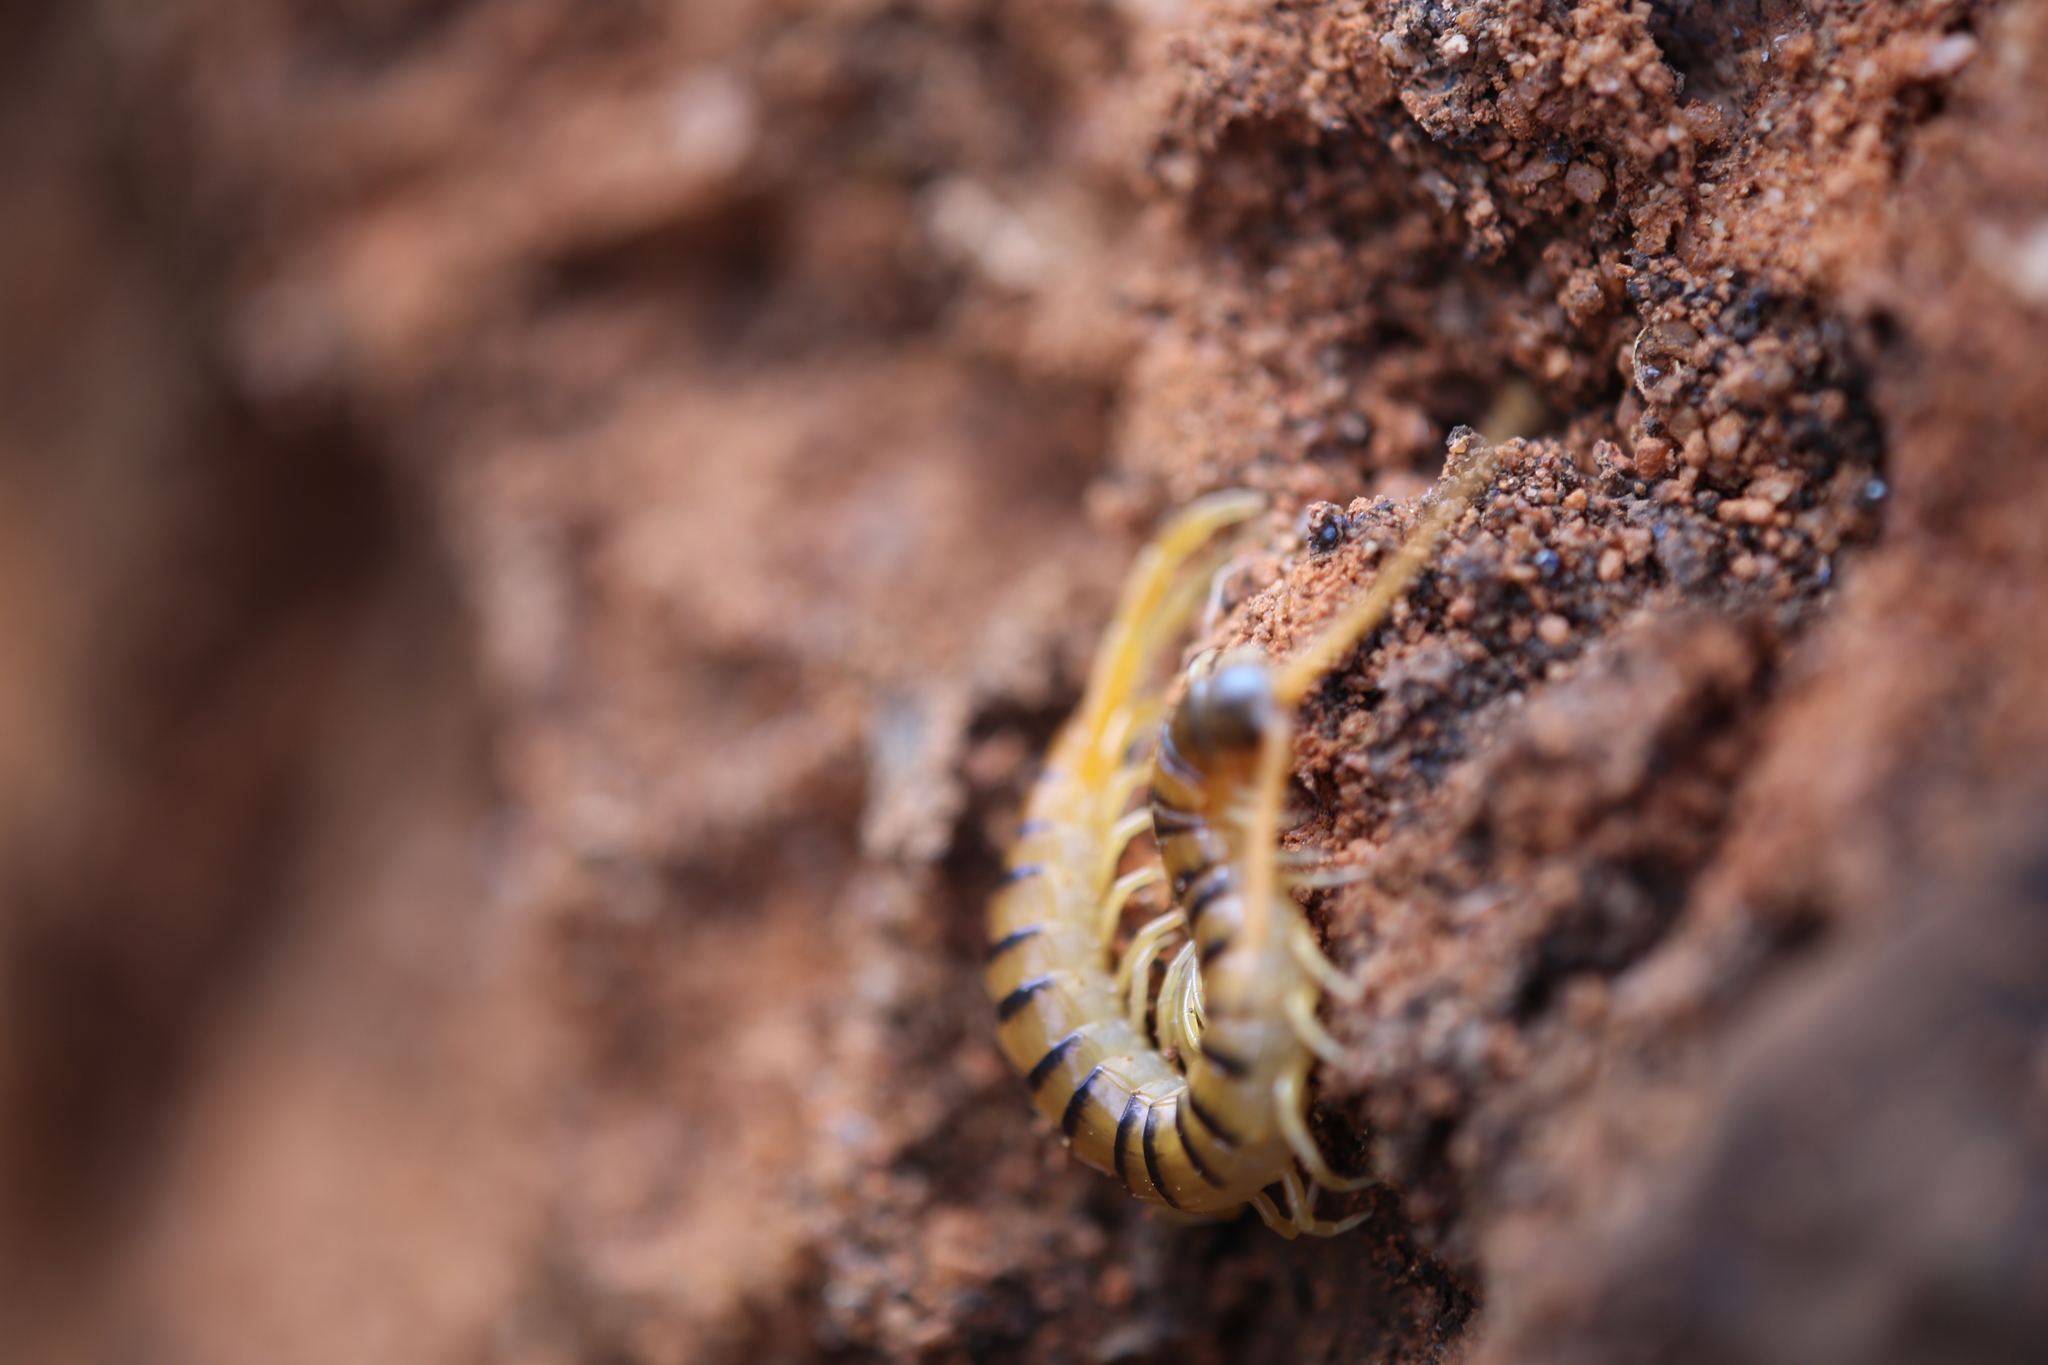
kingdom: Animalia
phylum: Arthropoda
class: Chilopoda
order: Scolopendromorpha
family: Scolopendridae
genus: Ethmostigmus
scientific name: Ethmostigmus rubripes
